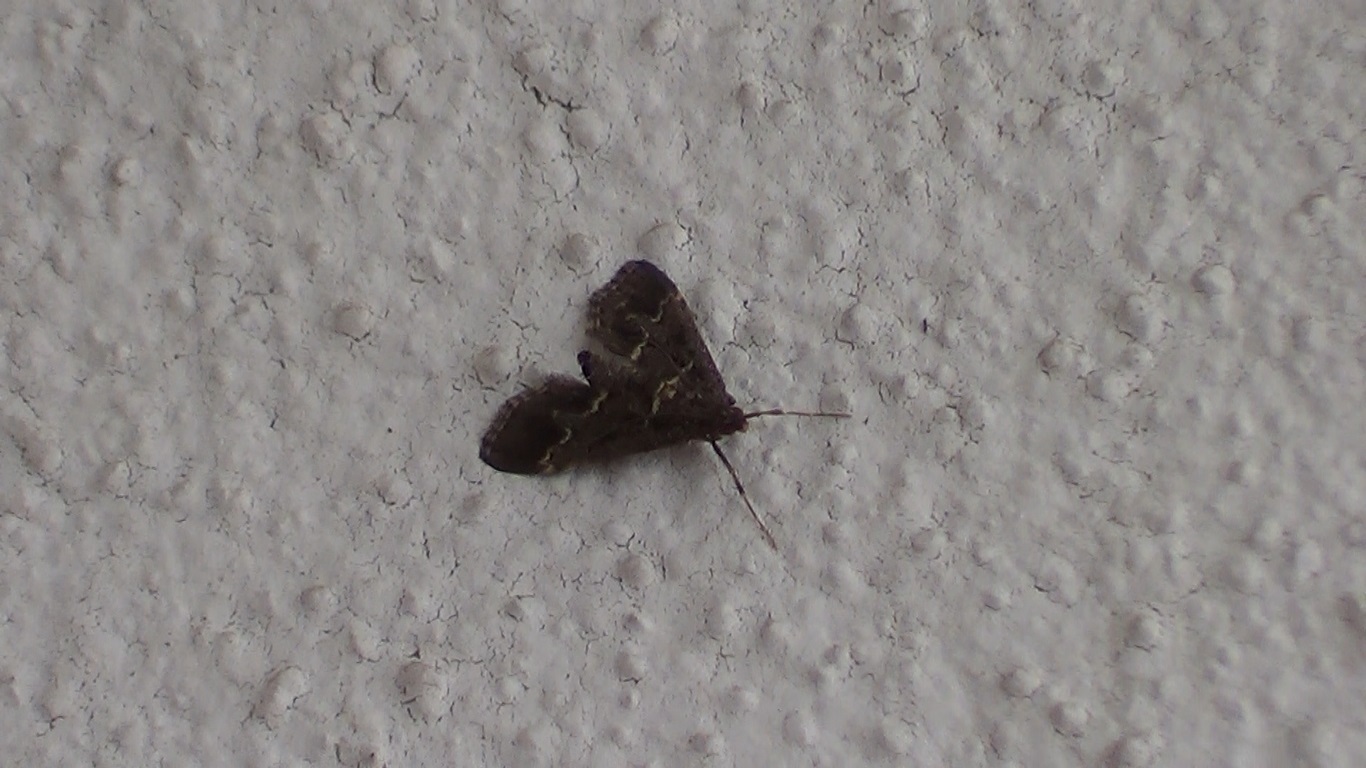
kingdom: Animalia
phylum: Arthropoda
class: Insecta
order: Lepidoptera
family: Crambidae
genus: Duponchelia
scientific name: Duponchelia fovealis
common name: Crambid moth
